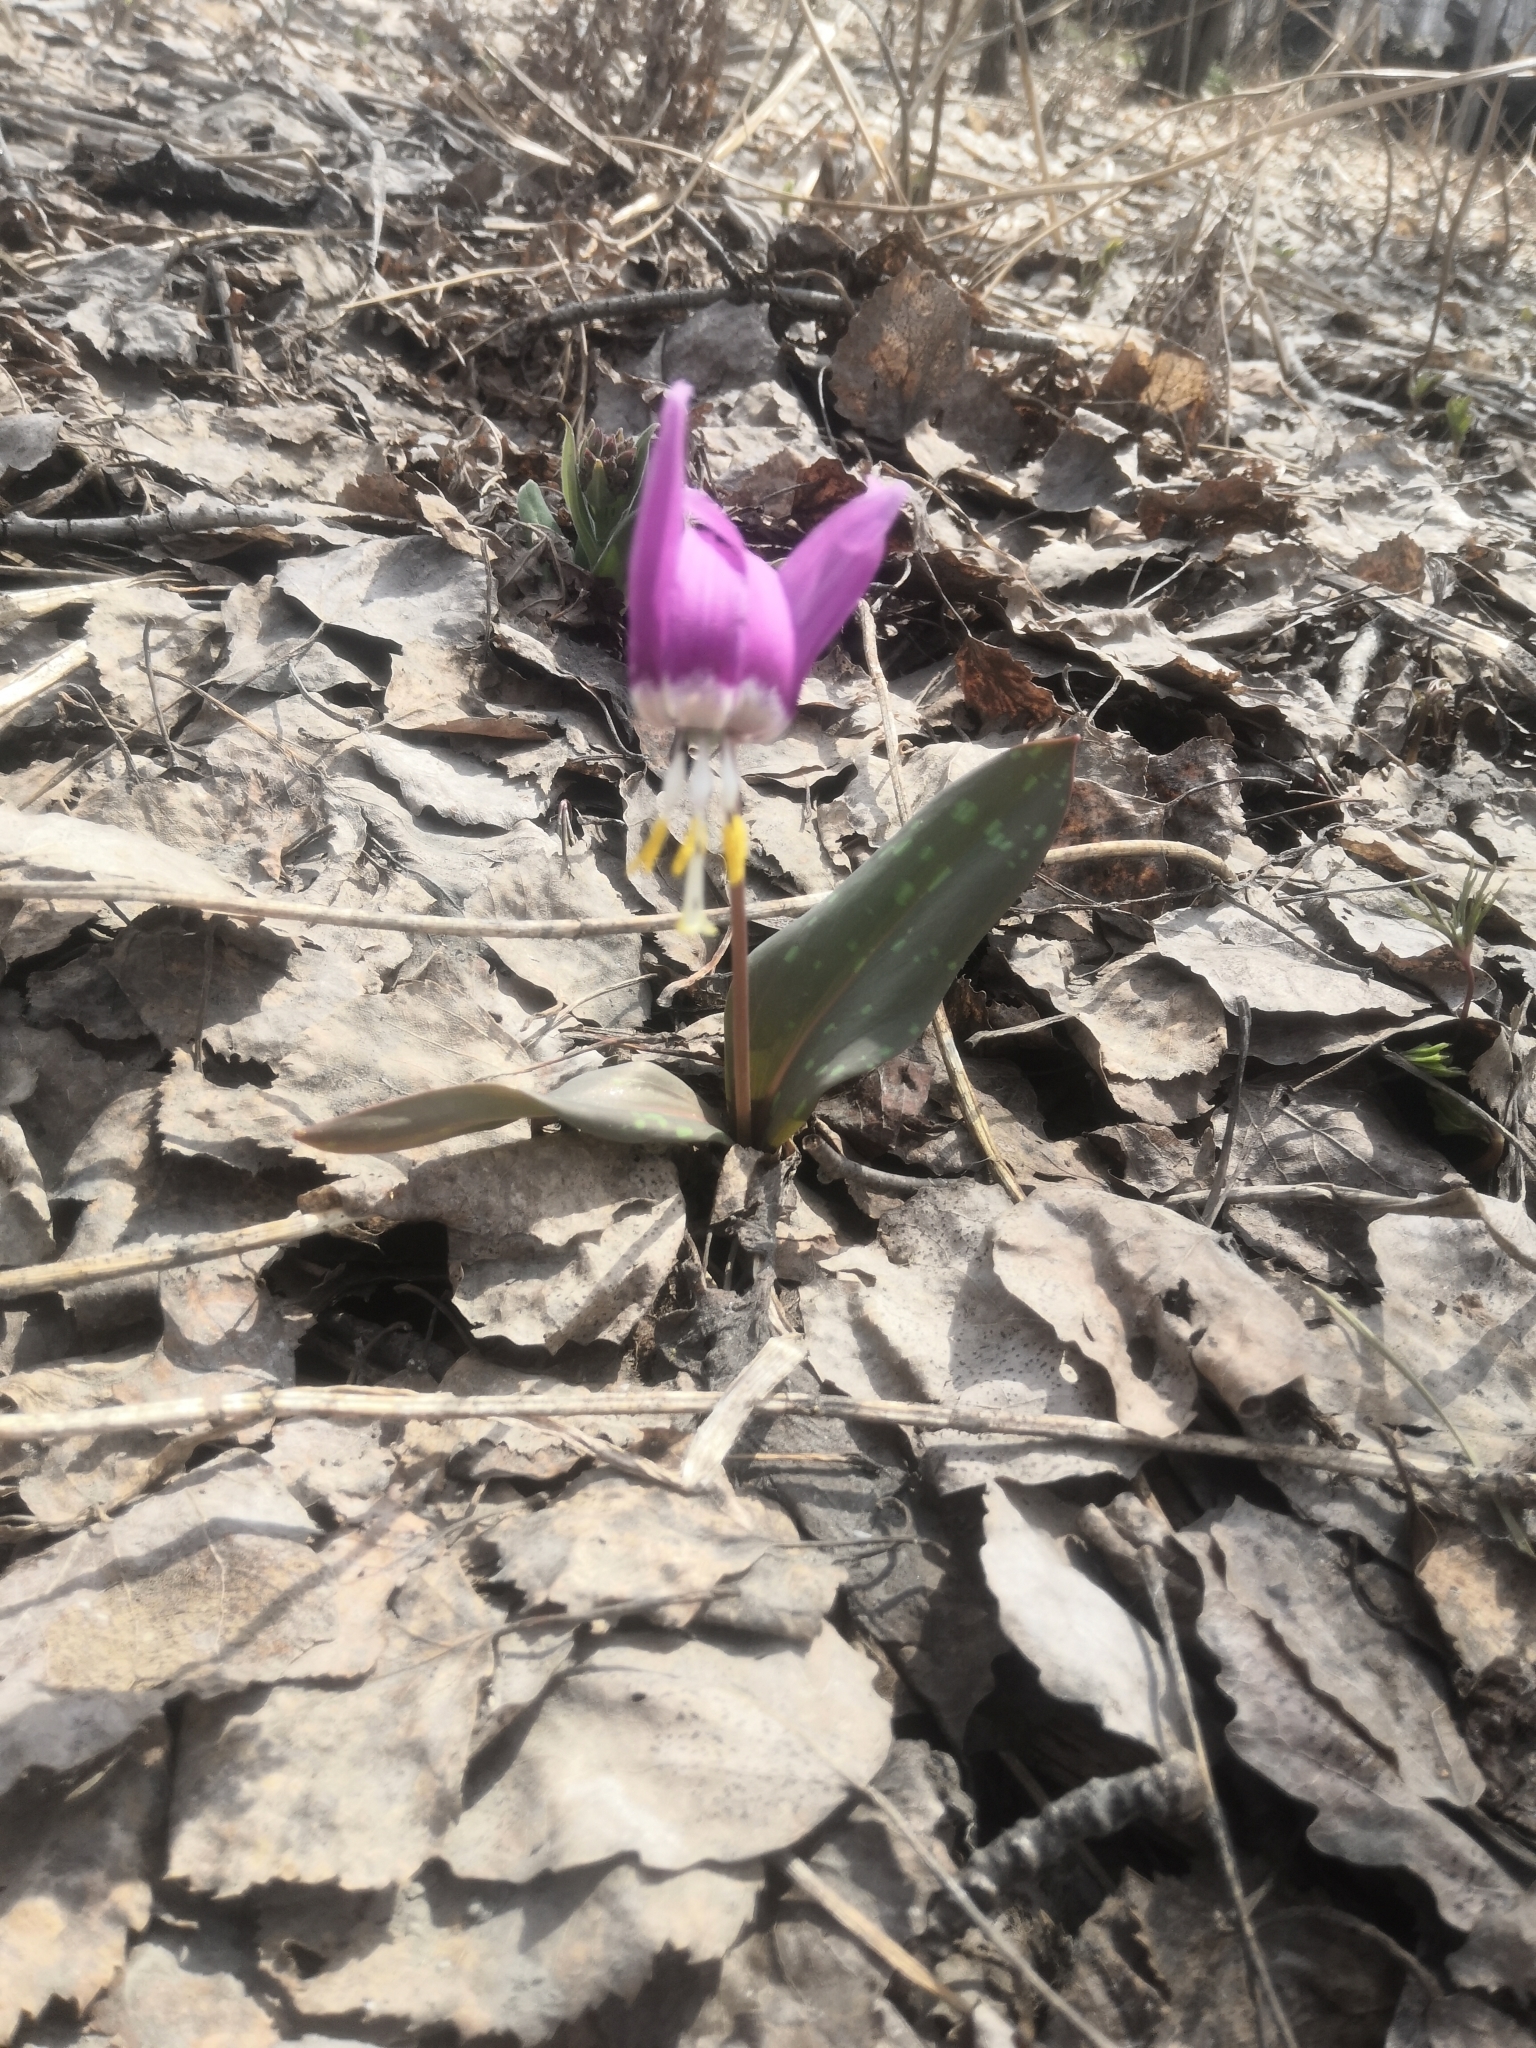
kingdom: Plantae
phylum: Tracheophyta
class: Liliopsida
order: Liliales
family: Liliaceae
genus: Erythronium
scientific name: Erythronium sibiricum
